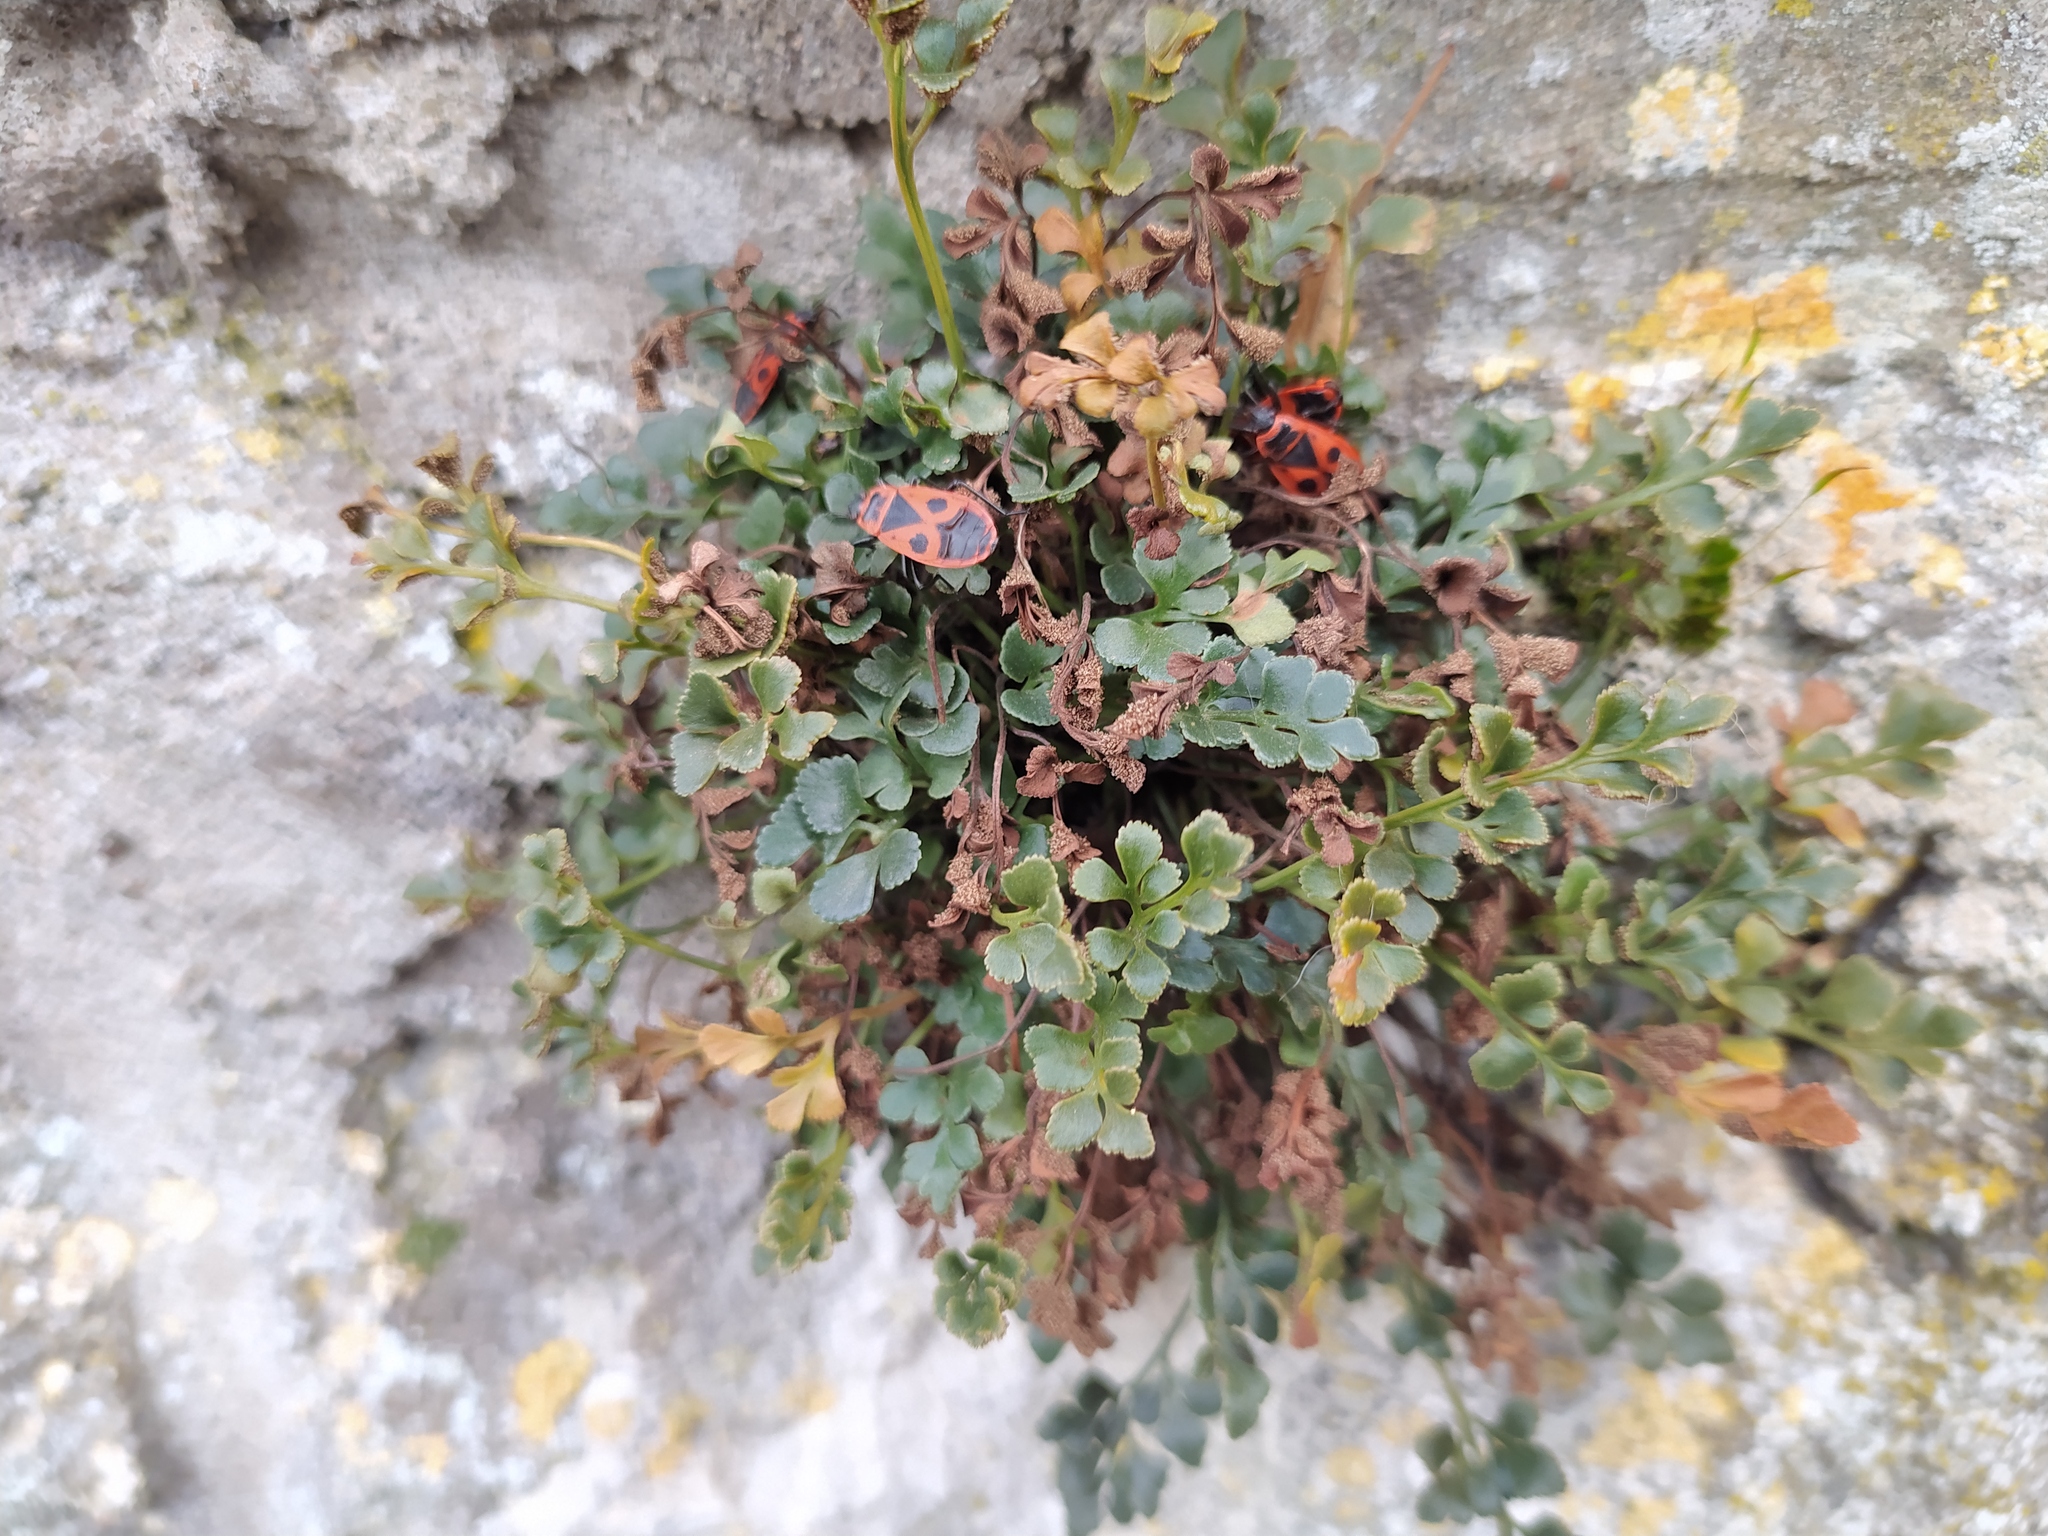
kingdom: Plantae
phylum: Tracheophyta
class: Polypodiopsida
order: Polypodiales
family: Aspleniaceae
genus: Asplenium
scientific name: Asplenium ruta-muraria
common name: Wall-rue
